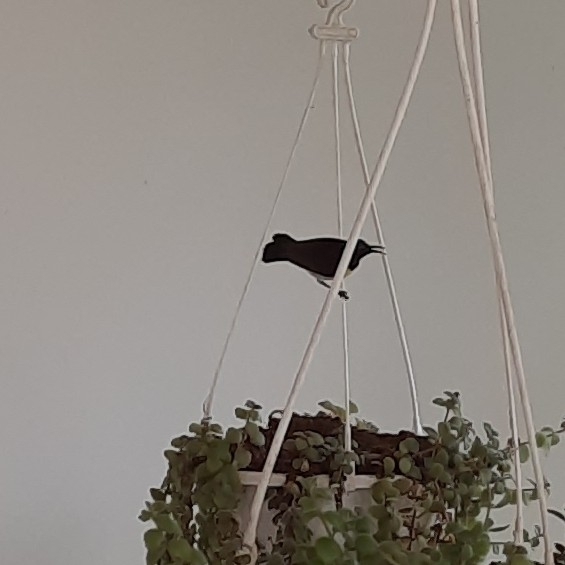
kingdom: Animalia
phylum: Chordata
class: Aves
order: Passeriformes
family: Nectariniidae
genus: Leptocoma
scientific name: Leptocoma zeylonica
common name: Purple-rumped sunbird
